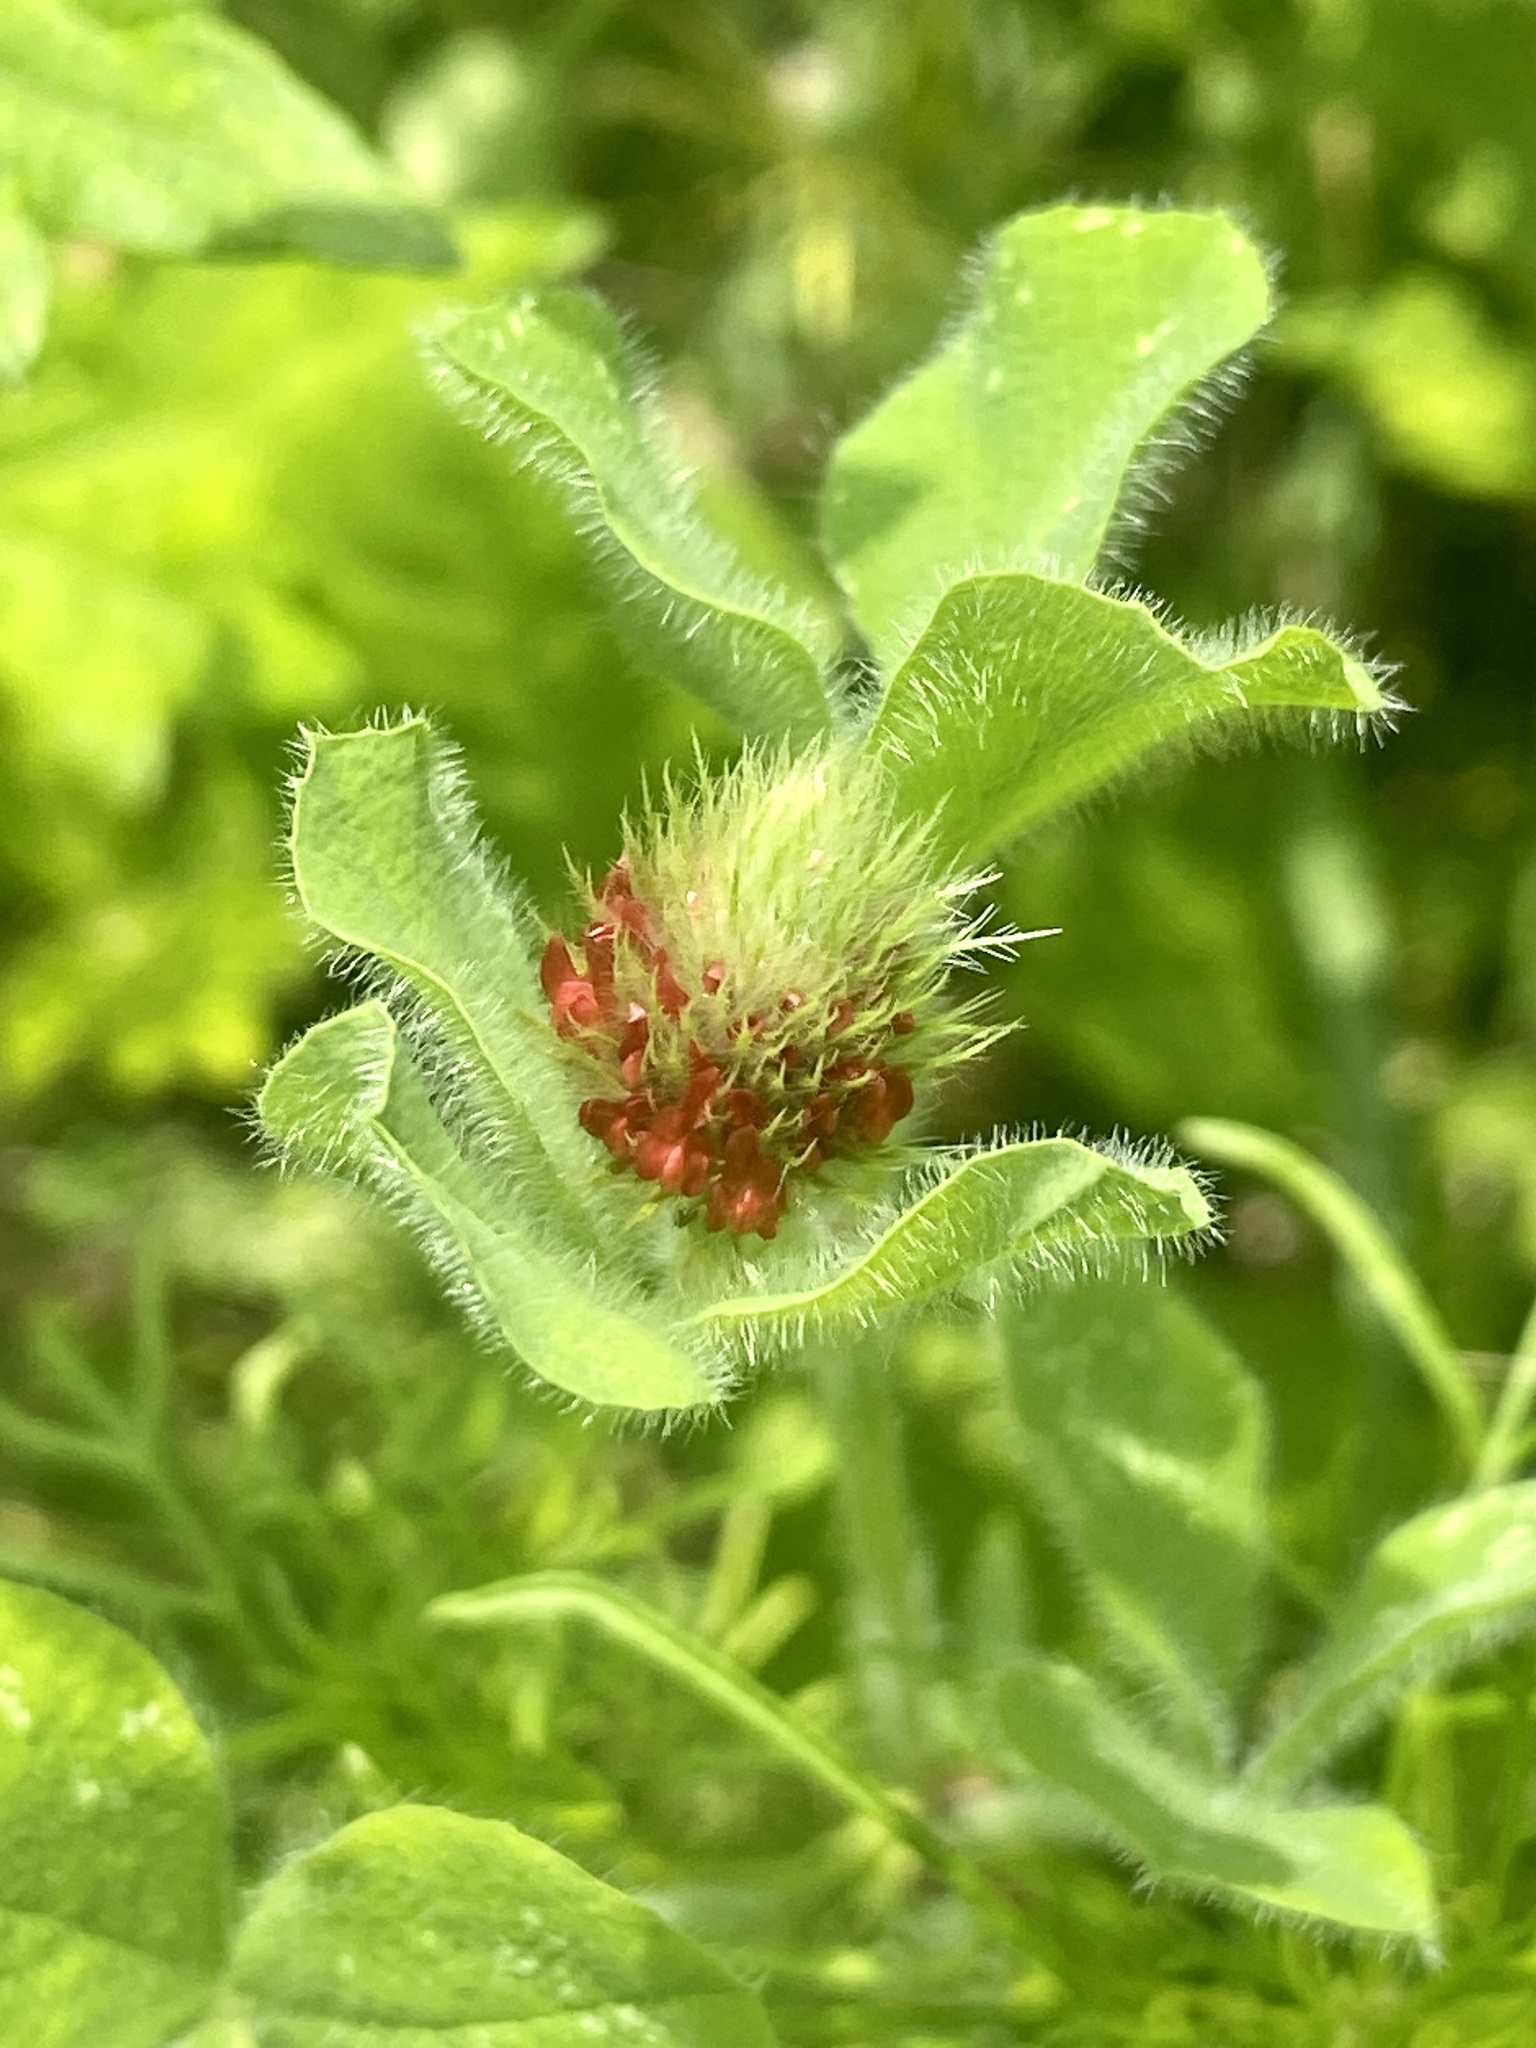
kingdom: Plantae
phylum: Tracheophyta
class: Magnoliopsida
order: Fabales
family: Fabaceae
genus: Trifolium
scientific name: Trifolium incarnatum
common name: Crimson clover
